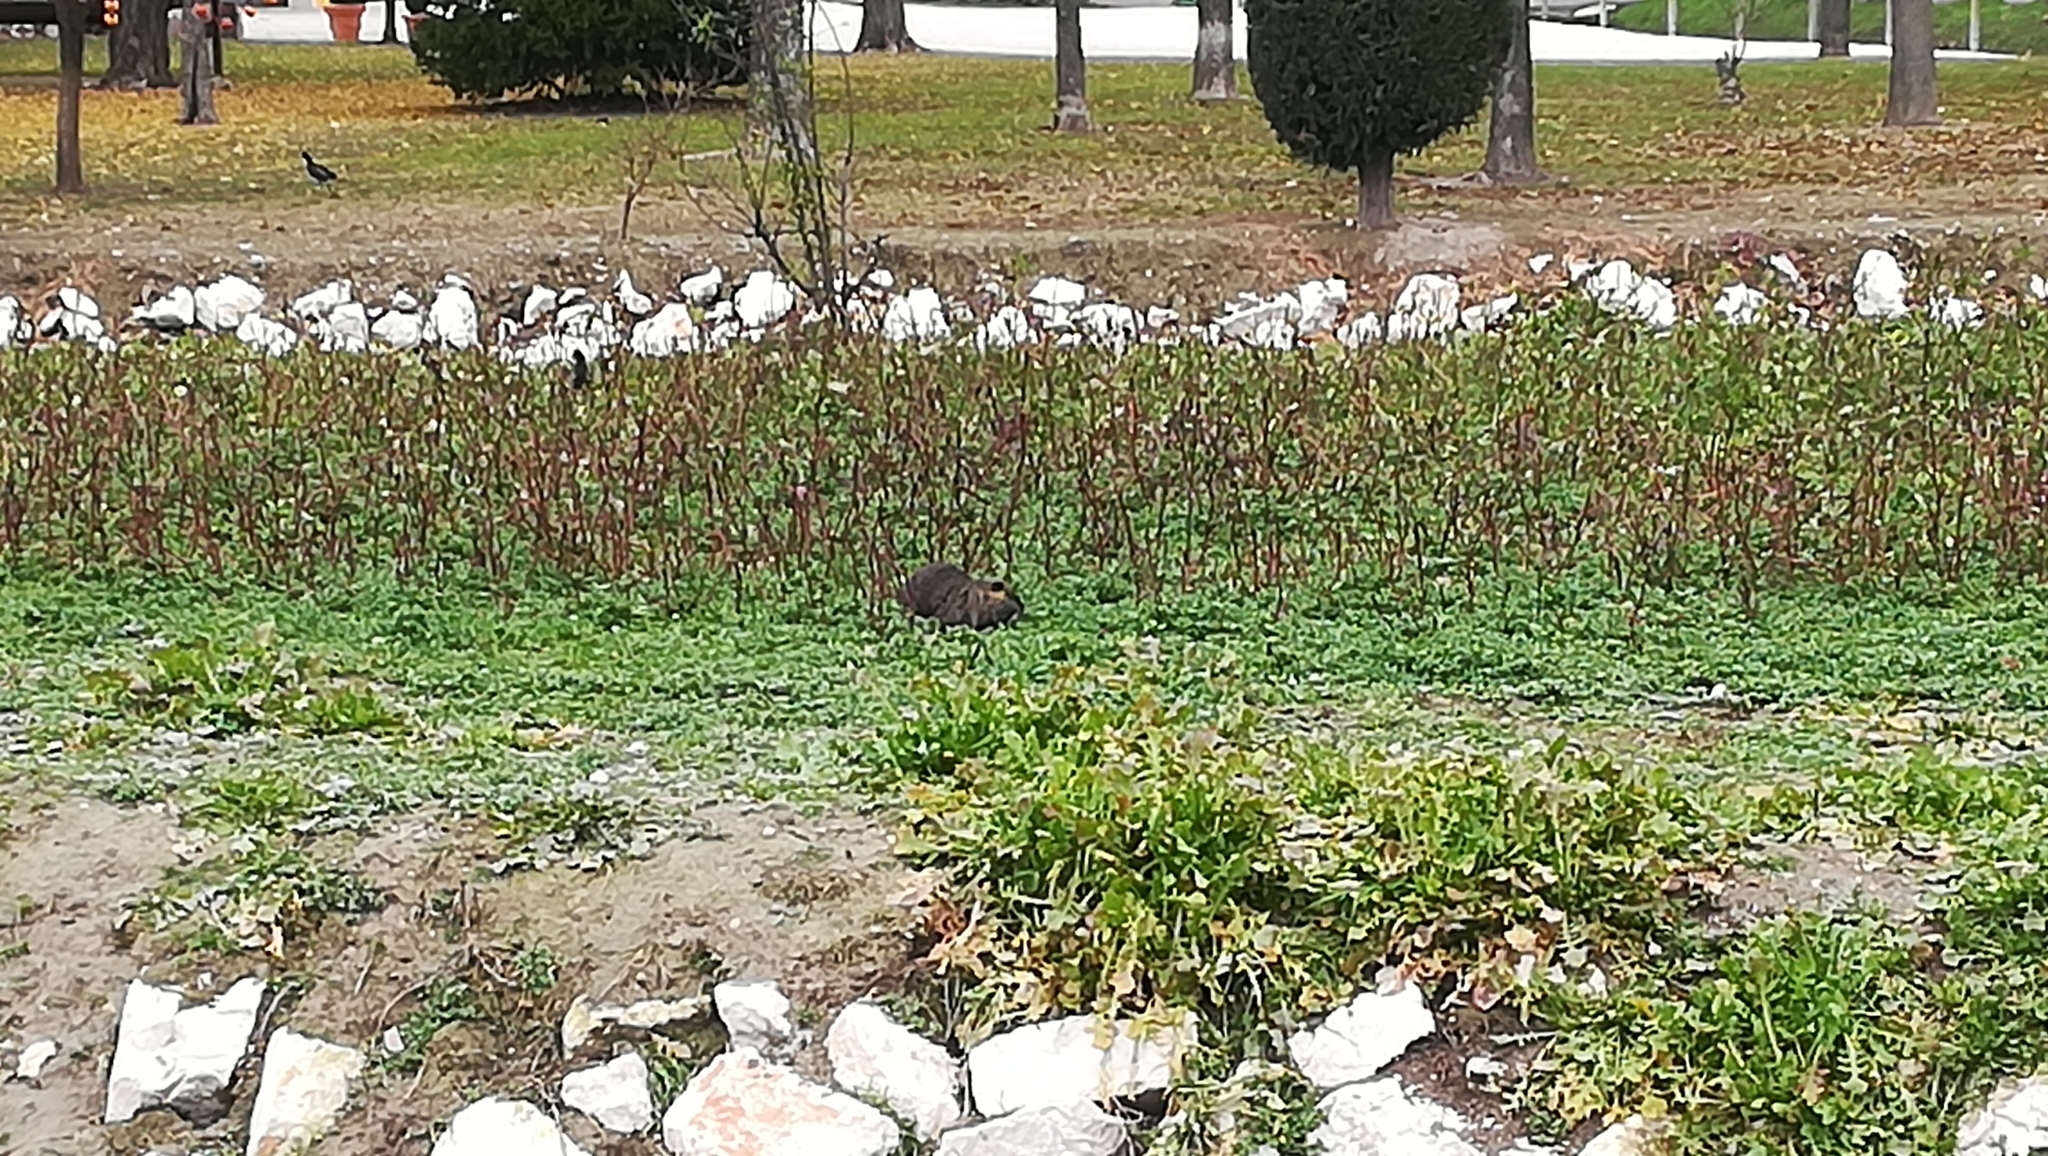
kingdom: Animalia
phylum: Chordata
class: Mammalia
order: Rodentia
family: Myocastoridae
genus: Myocastor
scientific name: Myocastor coypus
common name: Coypu
